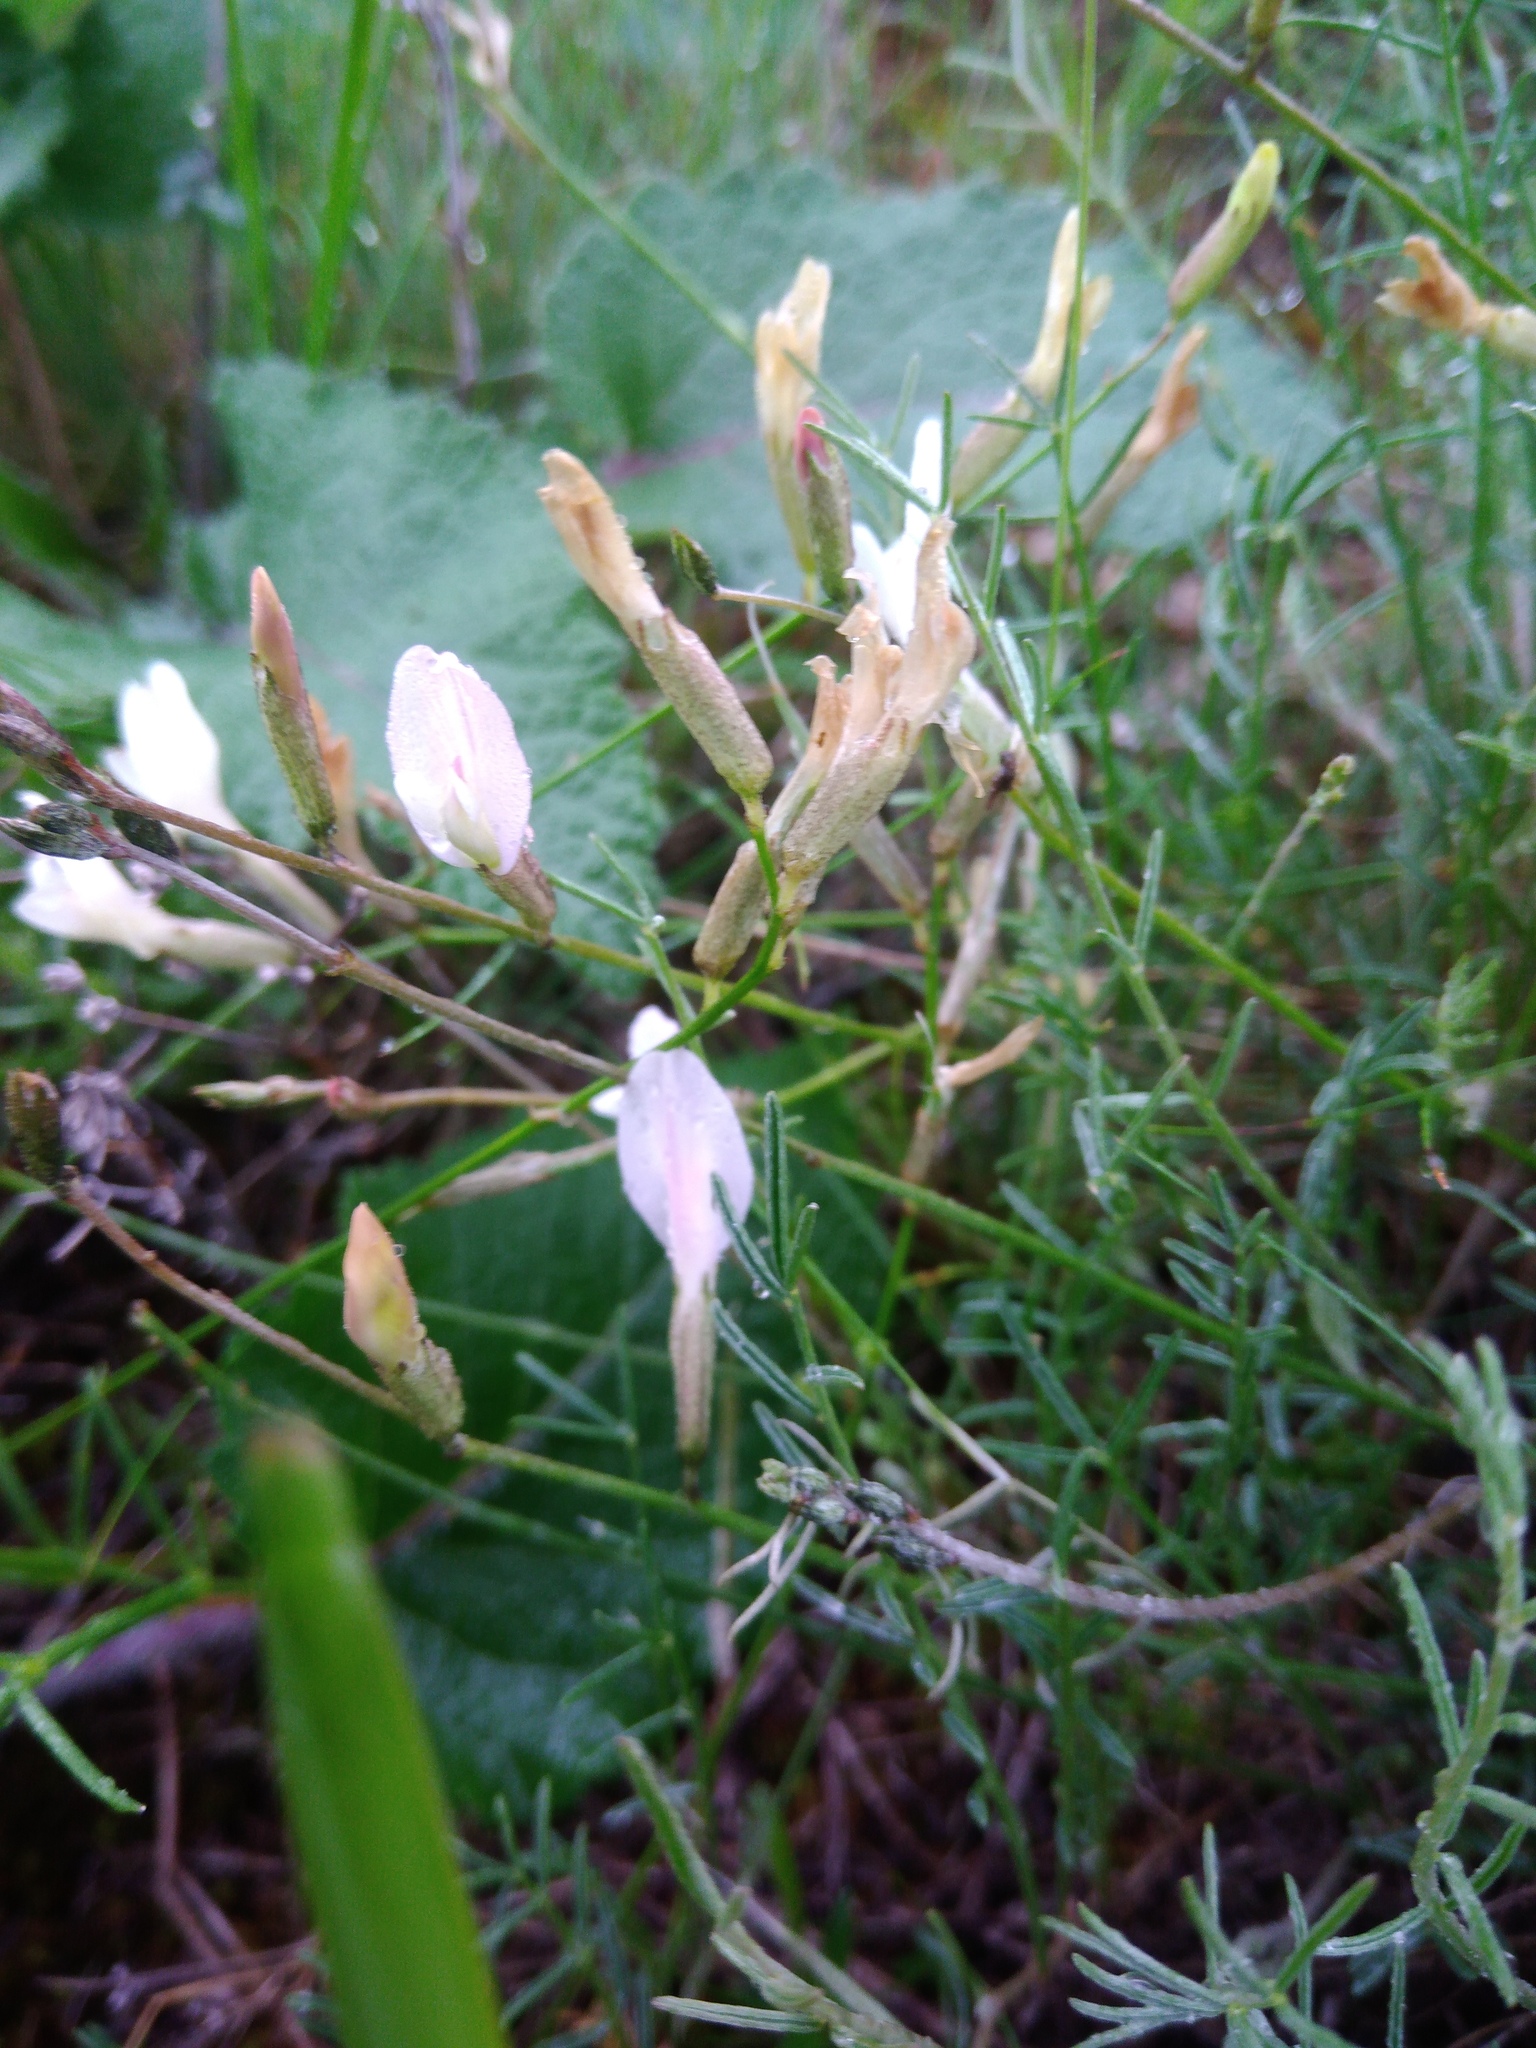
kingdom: Plantae
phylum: Tracheophyta
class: Magnoliopsida
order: Fabales
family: Fabaceae
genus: Astragalus
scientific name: Astragalus ucrainicus
